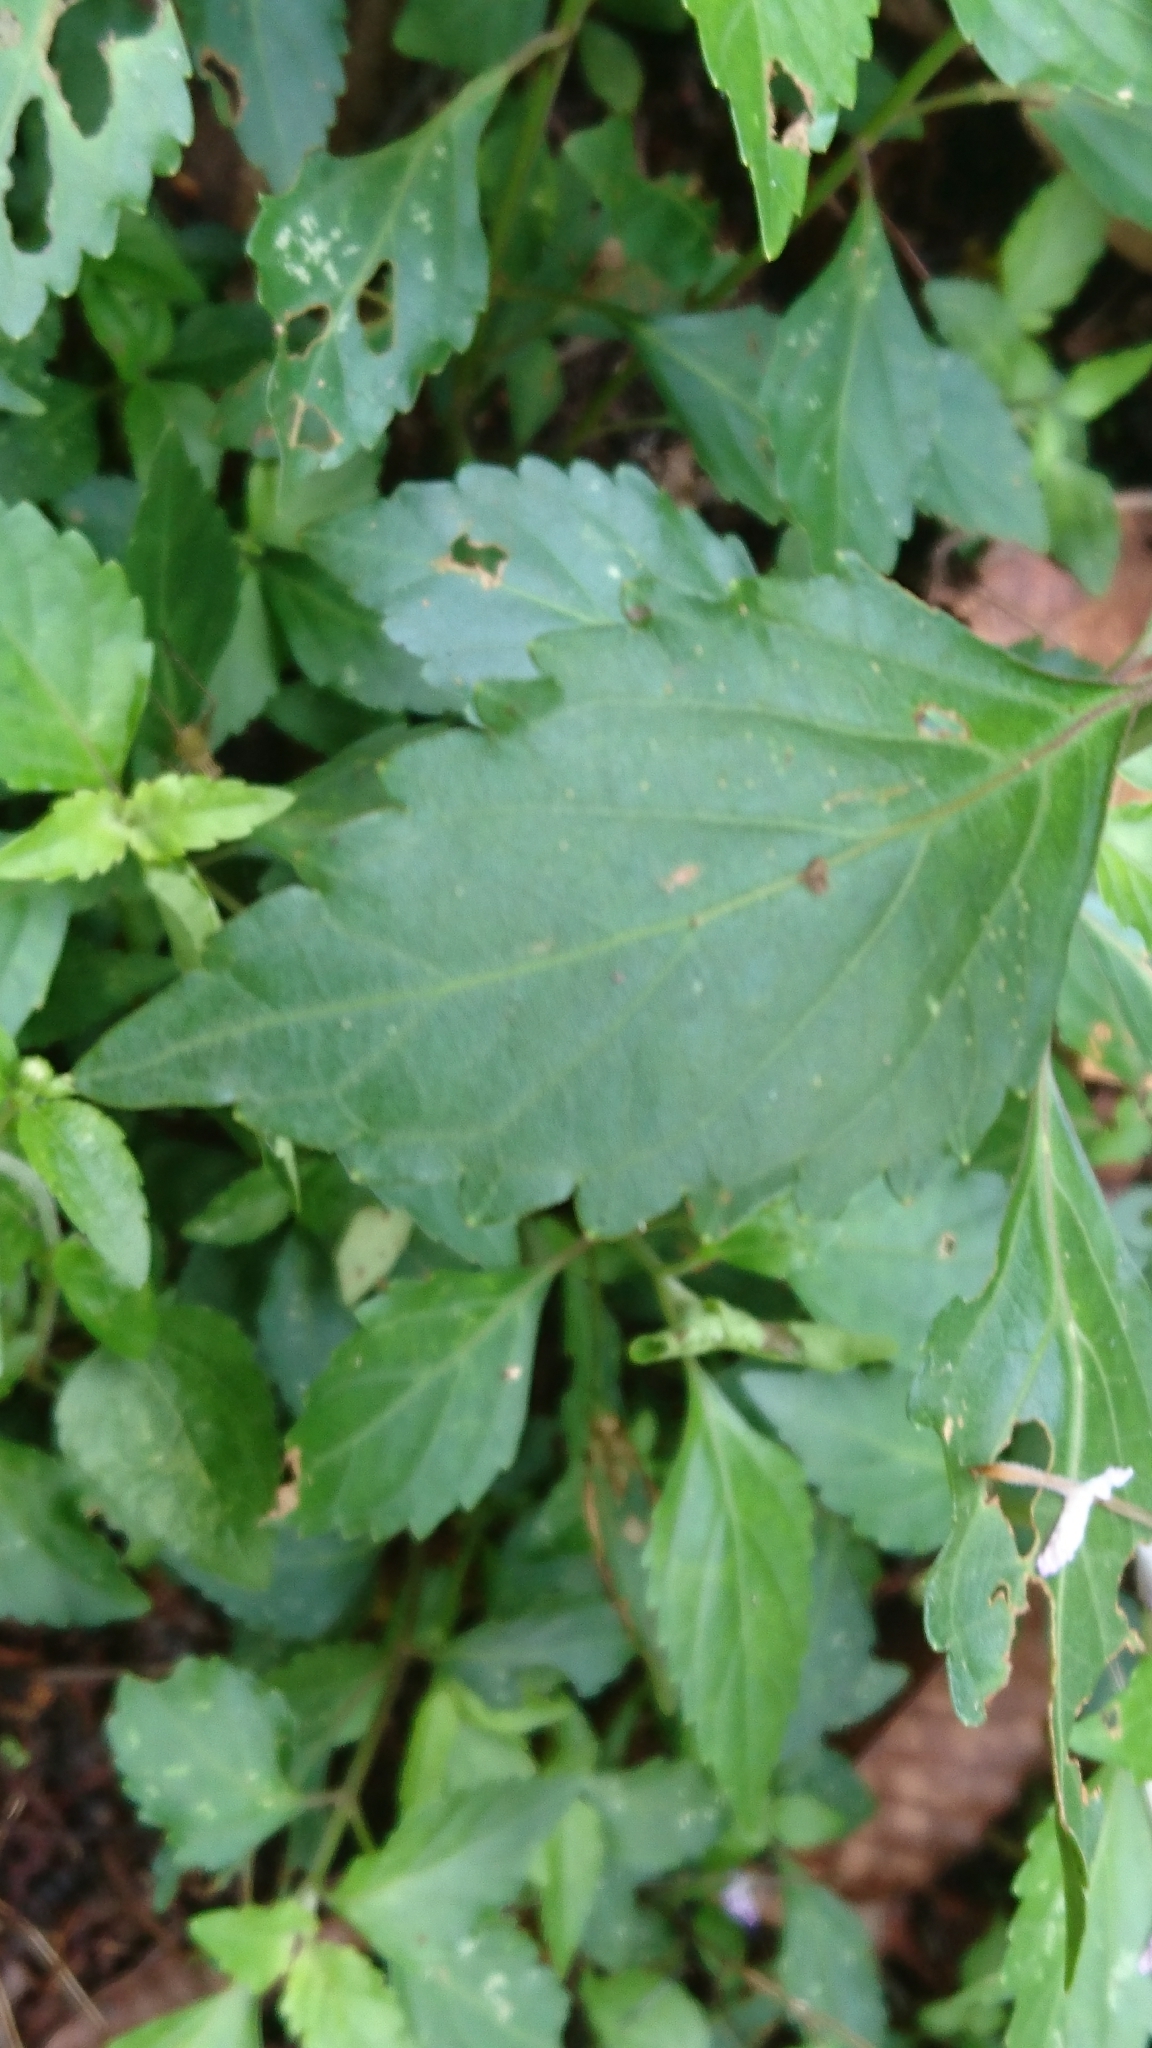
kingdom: Plantae
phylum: Tracheophyta
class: Magnoliopsida
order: Lamiales
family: Lamiaceae
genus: Orthosiphon
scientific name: Orthosiphon aristatus
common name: Whiskerplant
